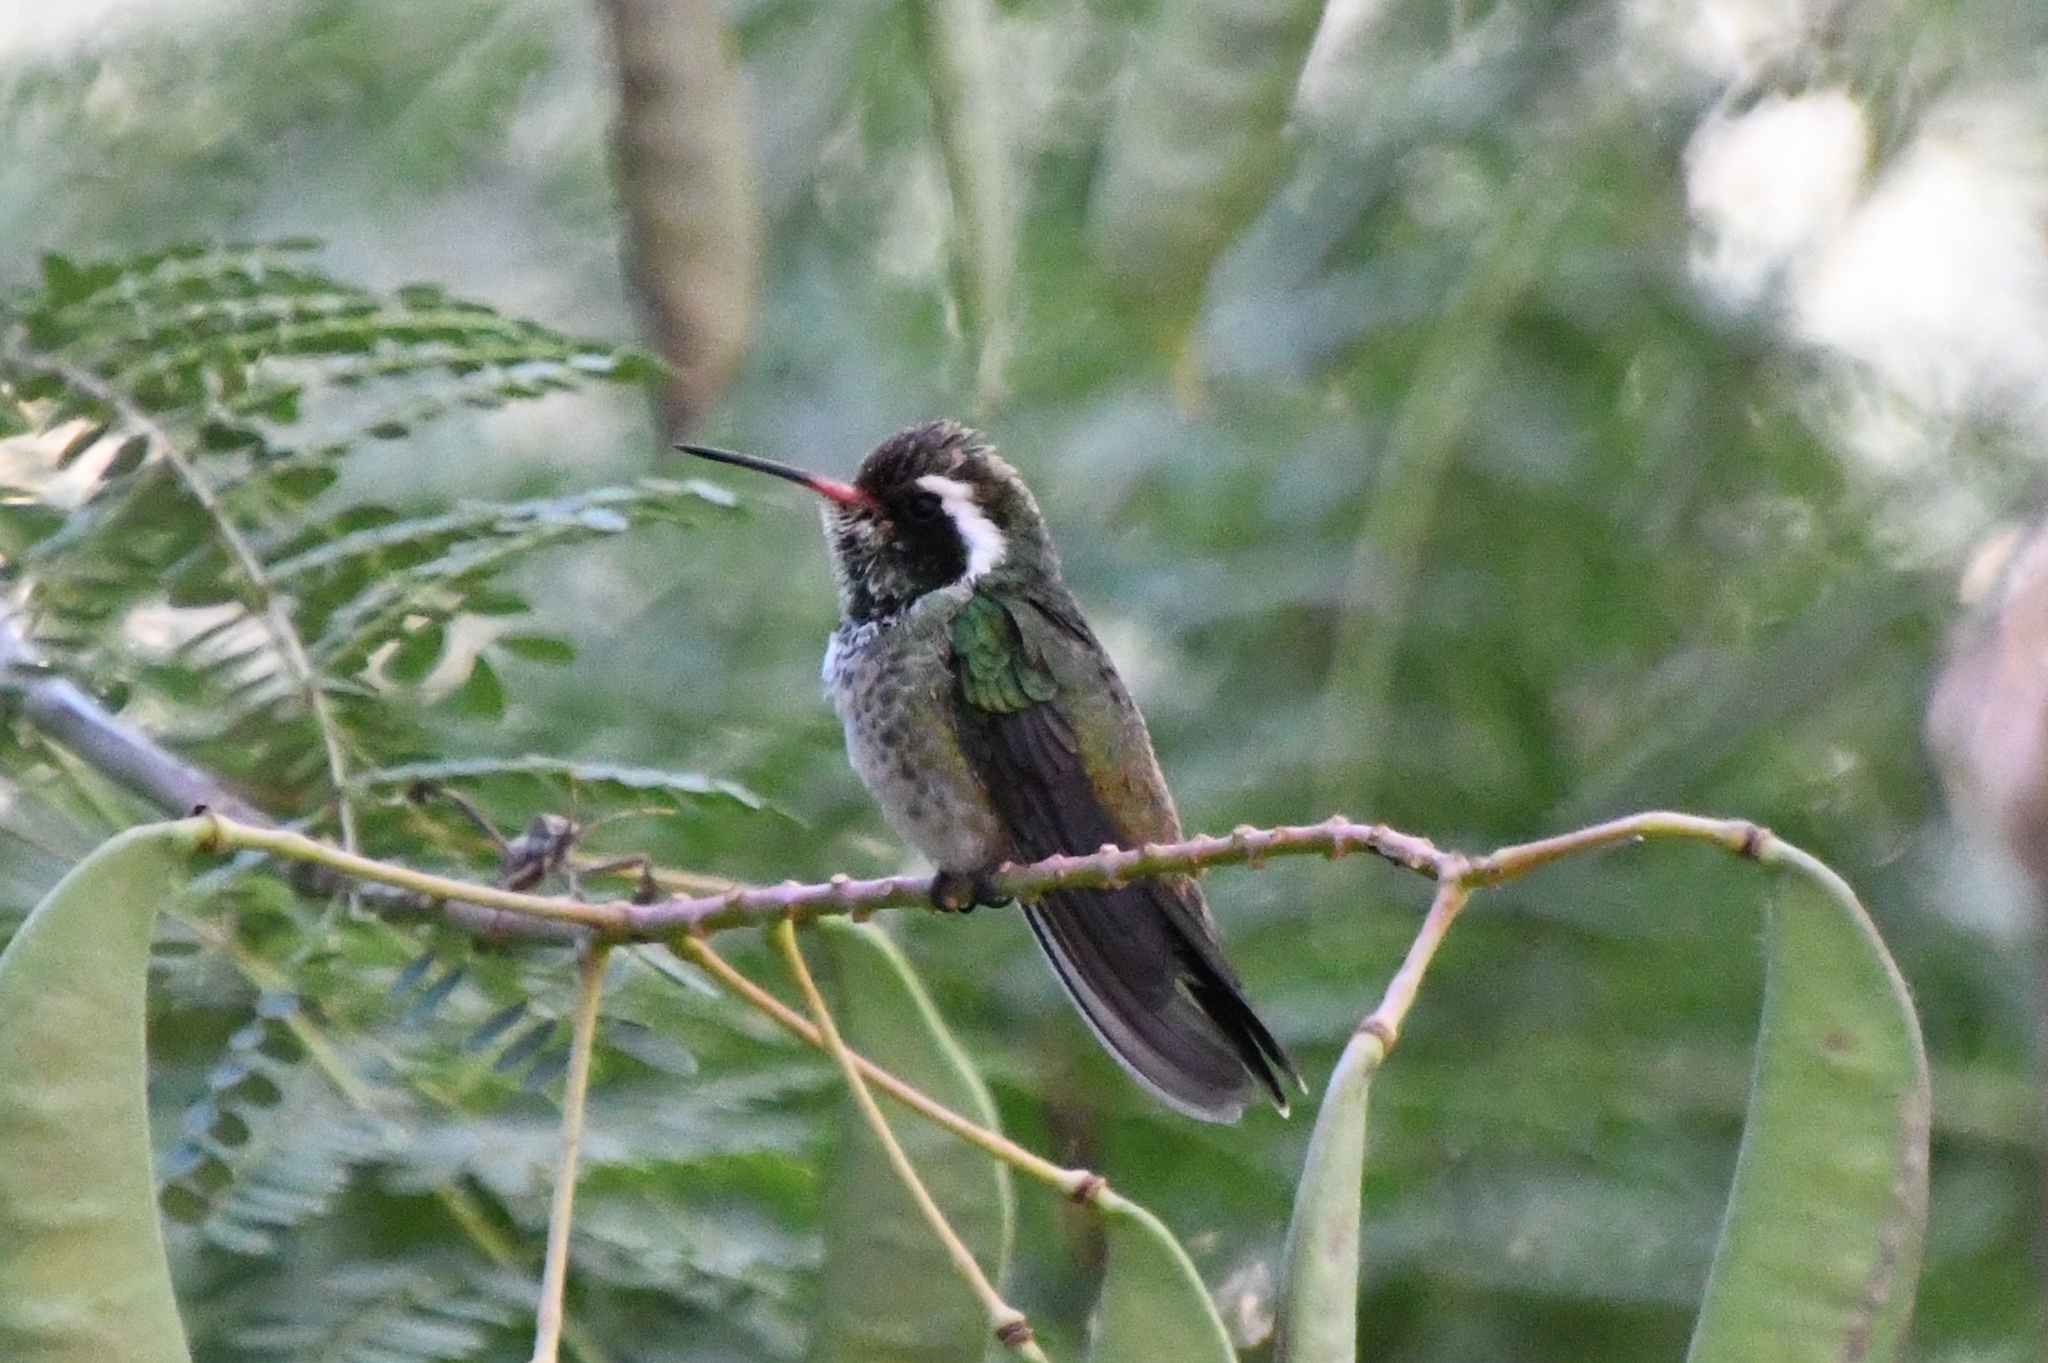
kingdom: Animalia
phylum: Chordata
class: Aves
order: Apodiformes
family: Trochilidae
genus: Basilinna
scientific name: Basilinna leucotis
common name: White-eared hummingbird
